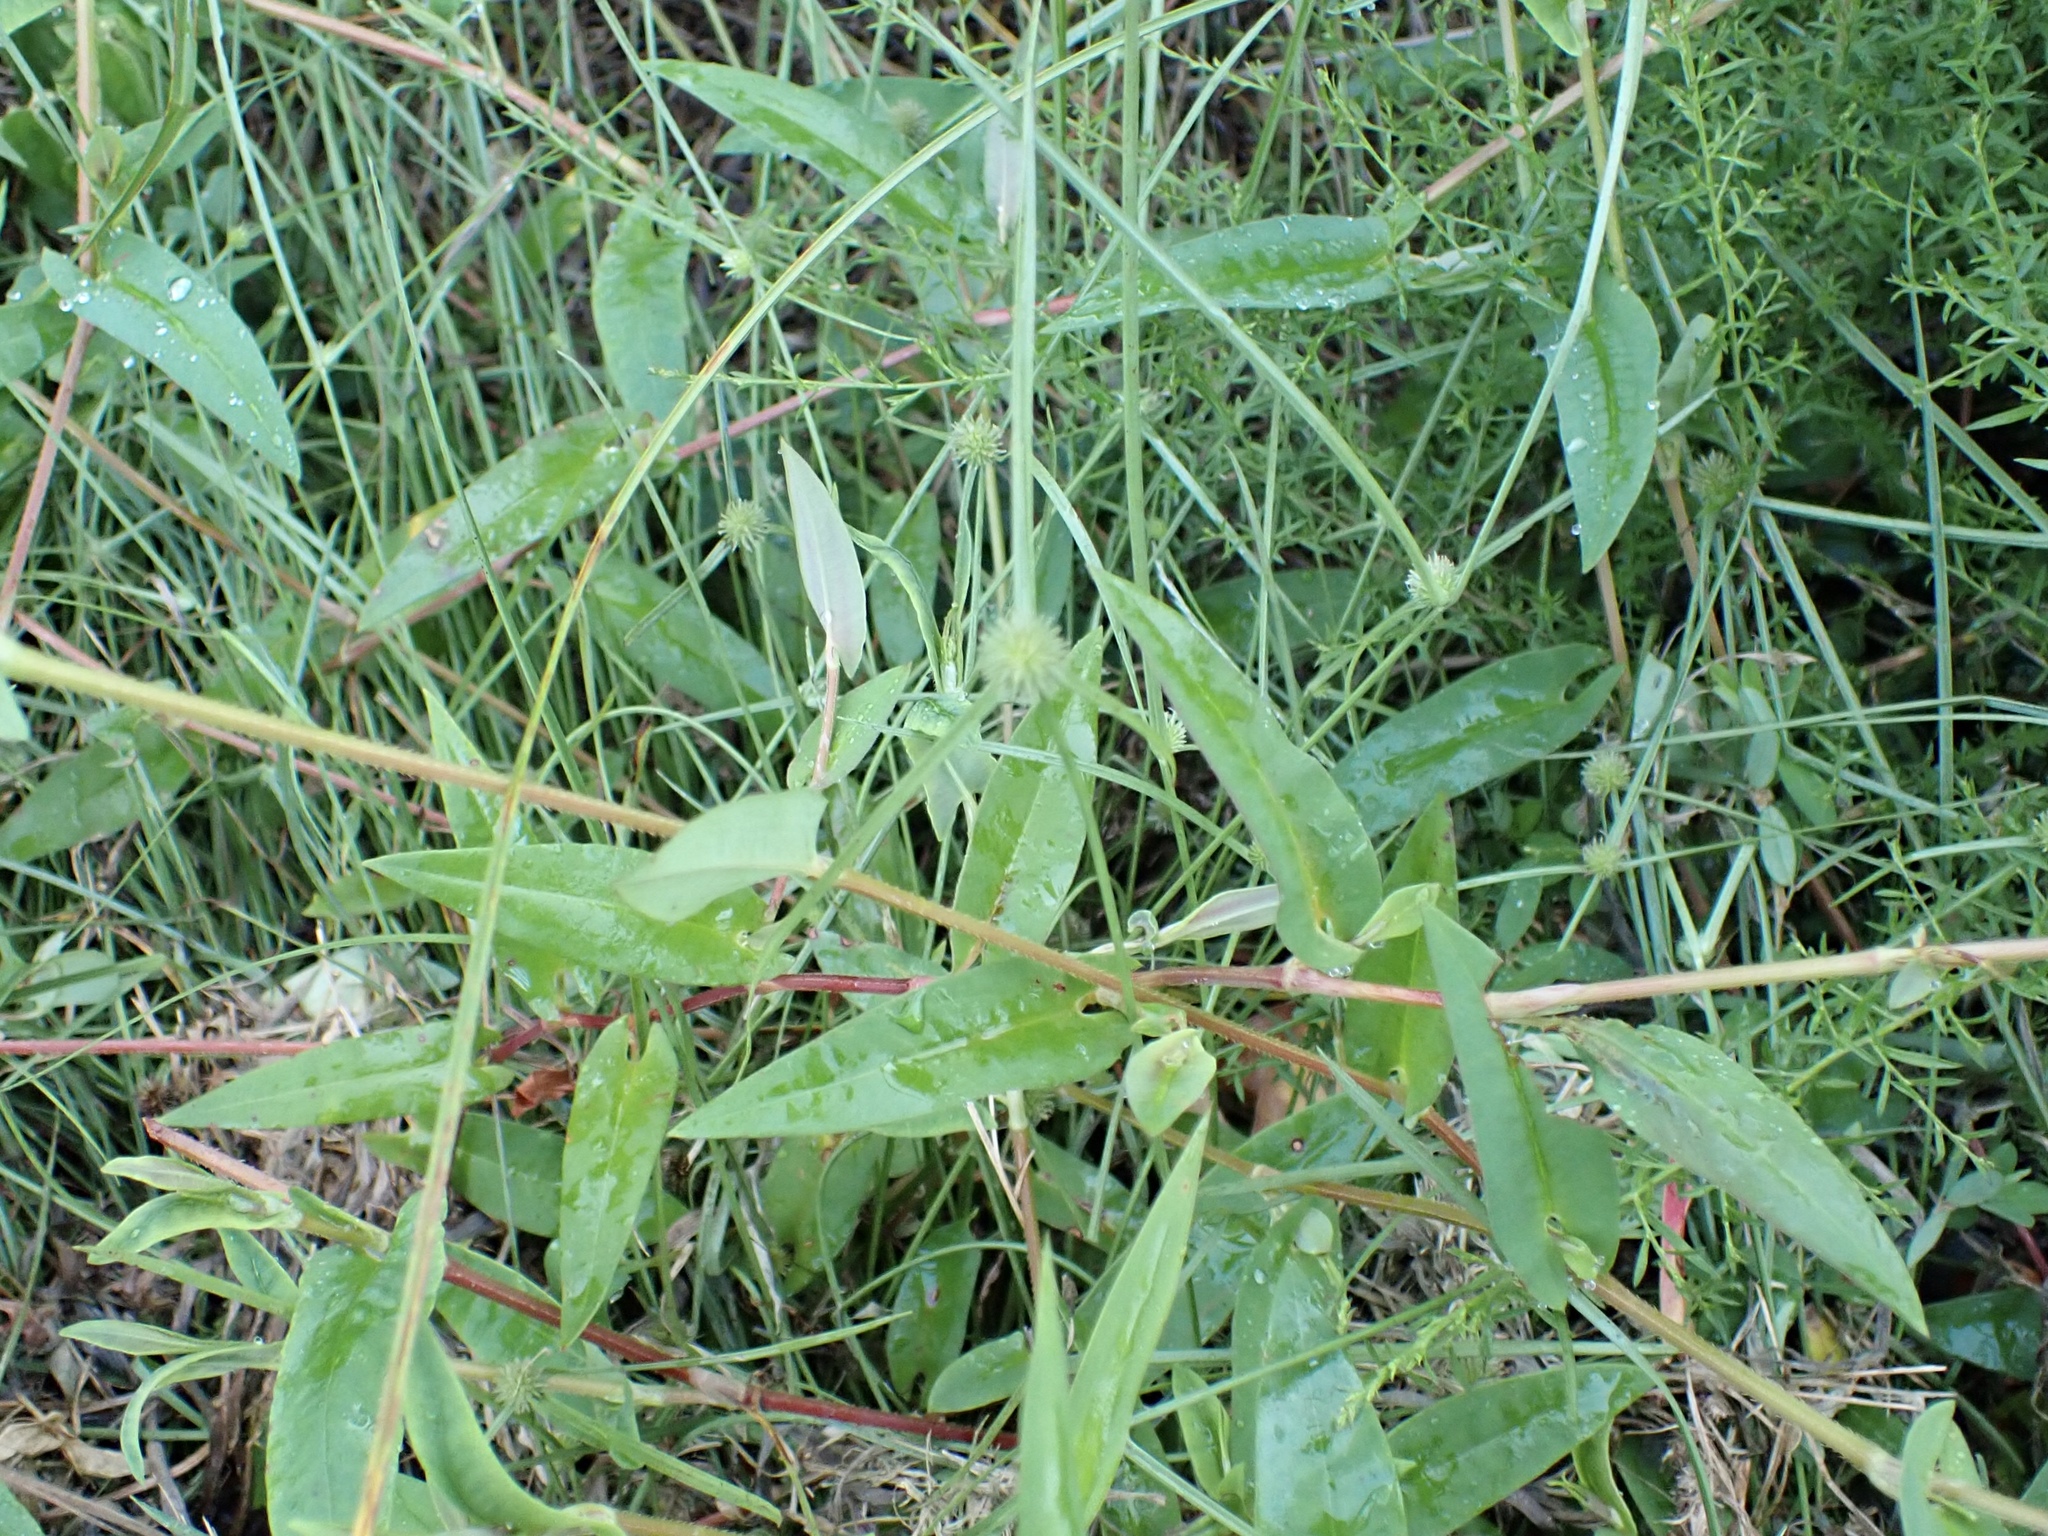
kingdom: Plantae
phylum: Tracheophyta
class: Magnoliopsida
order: Caryophyllales
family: Polygonaceae
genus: Persicaria
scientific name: Persicaria sagittata
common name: American tearthumb
